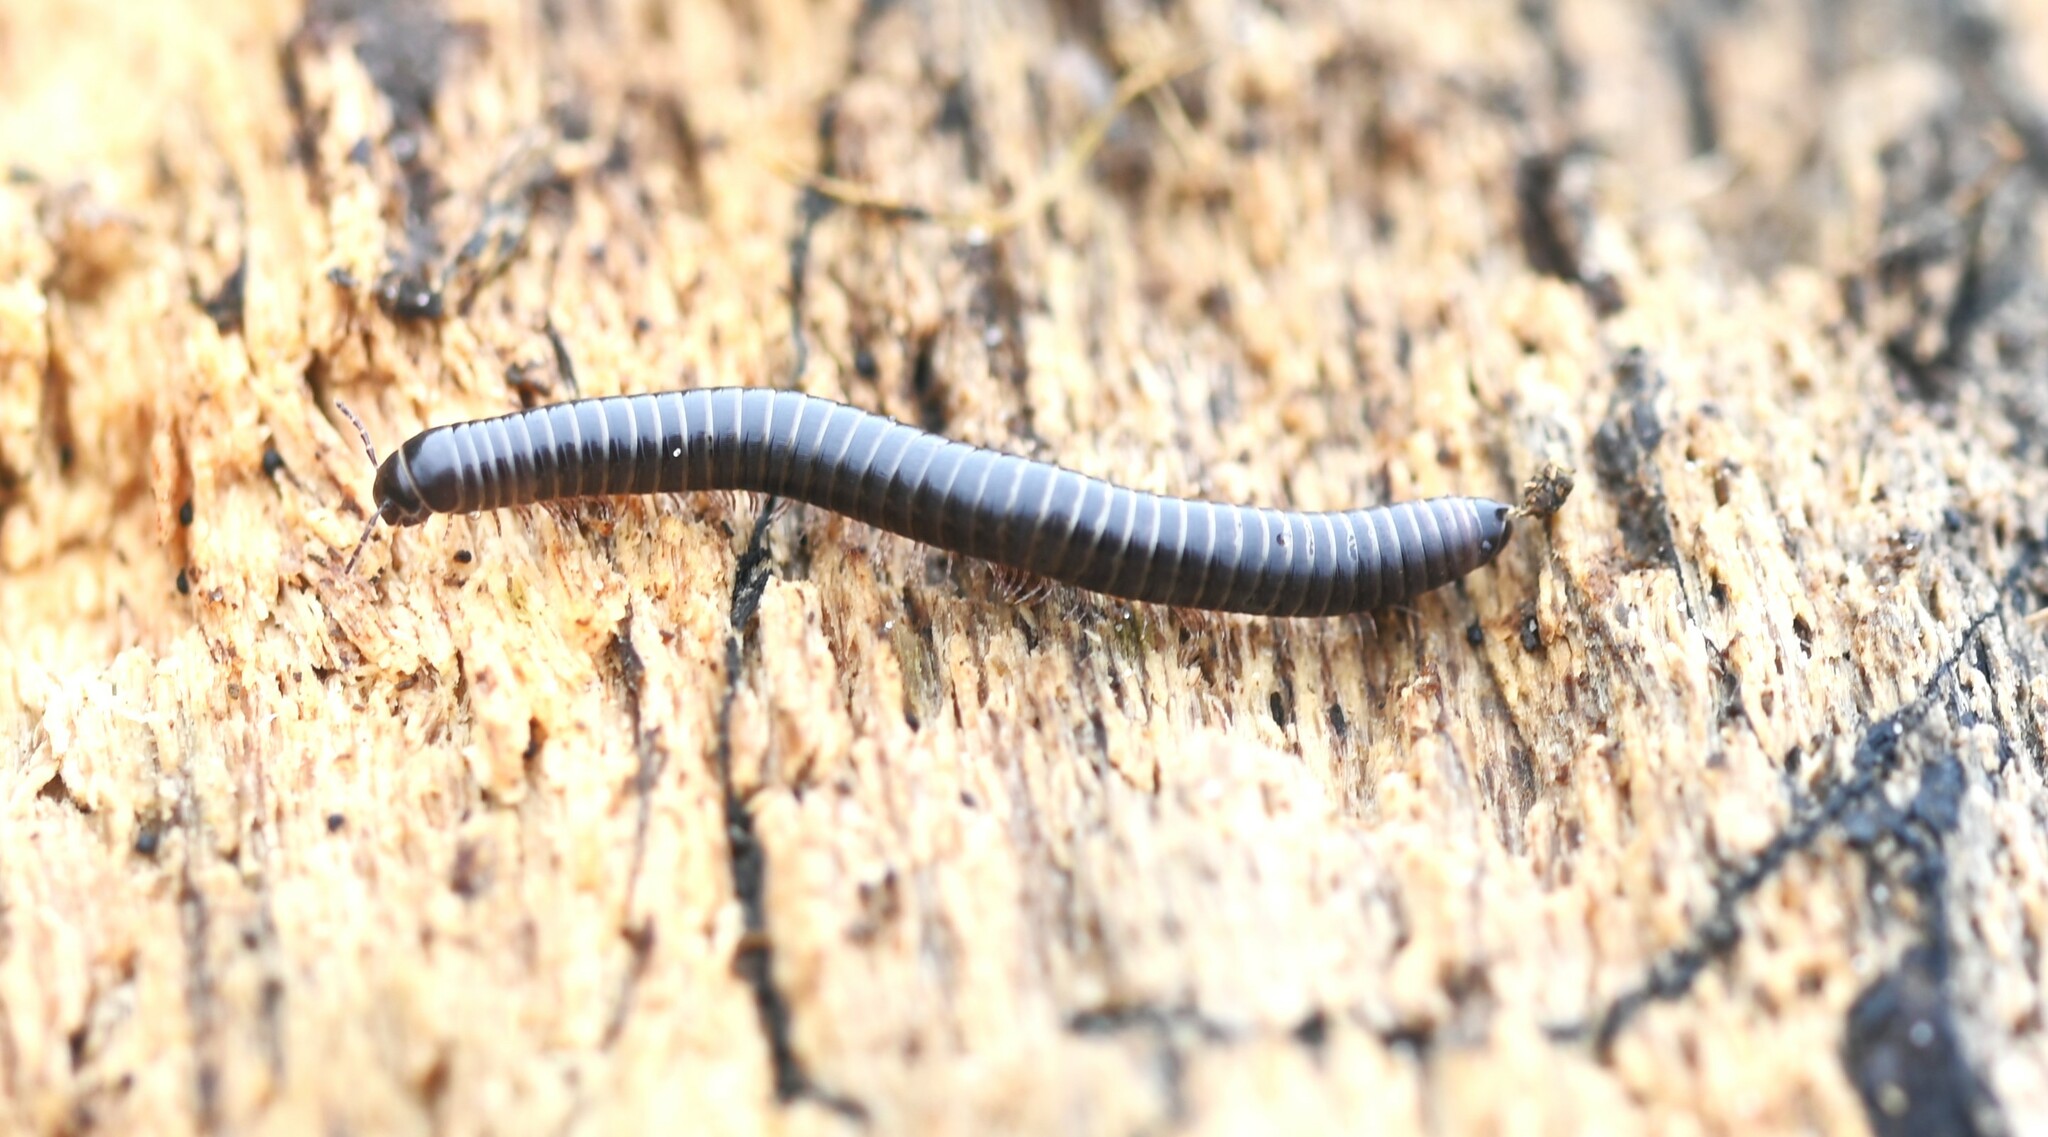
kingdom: Animalia
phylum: Arthropoda
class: Diplopoda
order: Julida
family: Julidae
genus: Cylindroiulus
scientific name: Cylindroiulus londinensis
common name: Black millipede
